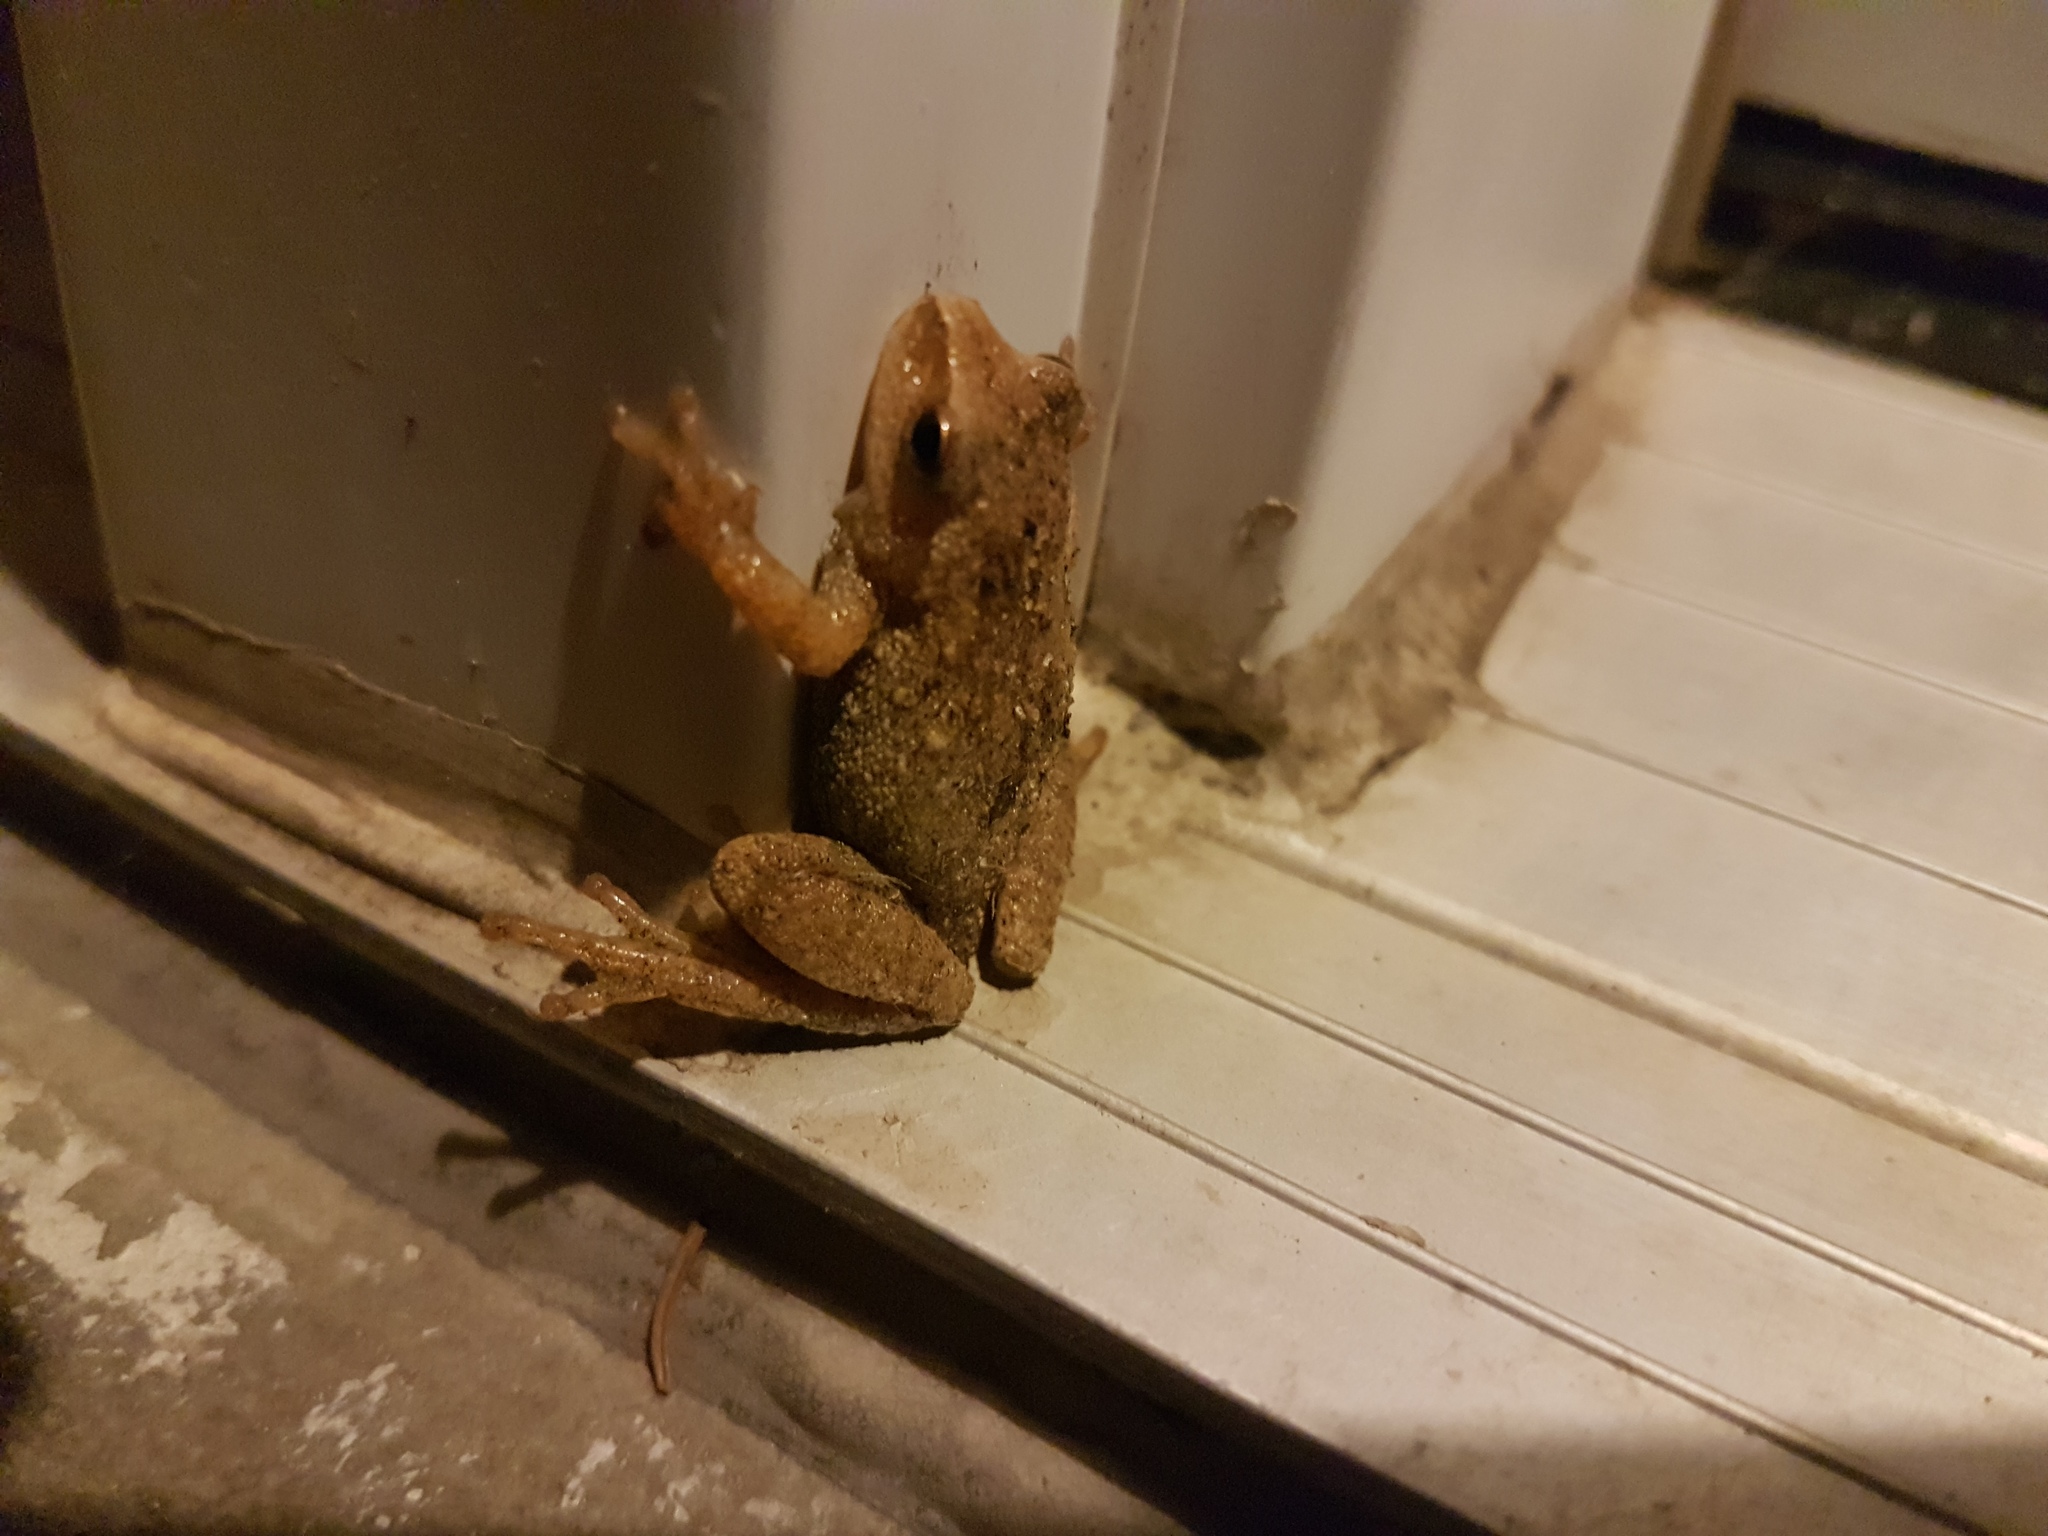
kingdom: Animalia
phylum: Chordata
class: Amphibia
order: Anura
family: Hylidae
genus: Pseudacris
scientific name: Pseudacris crucifer
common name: Spring peeper
